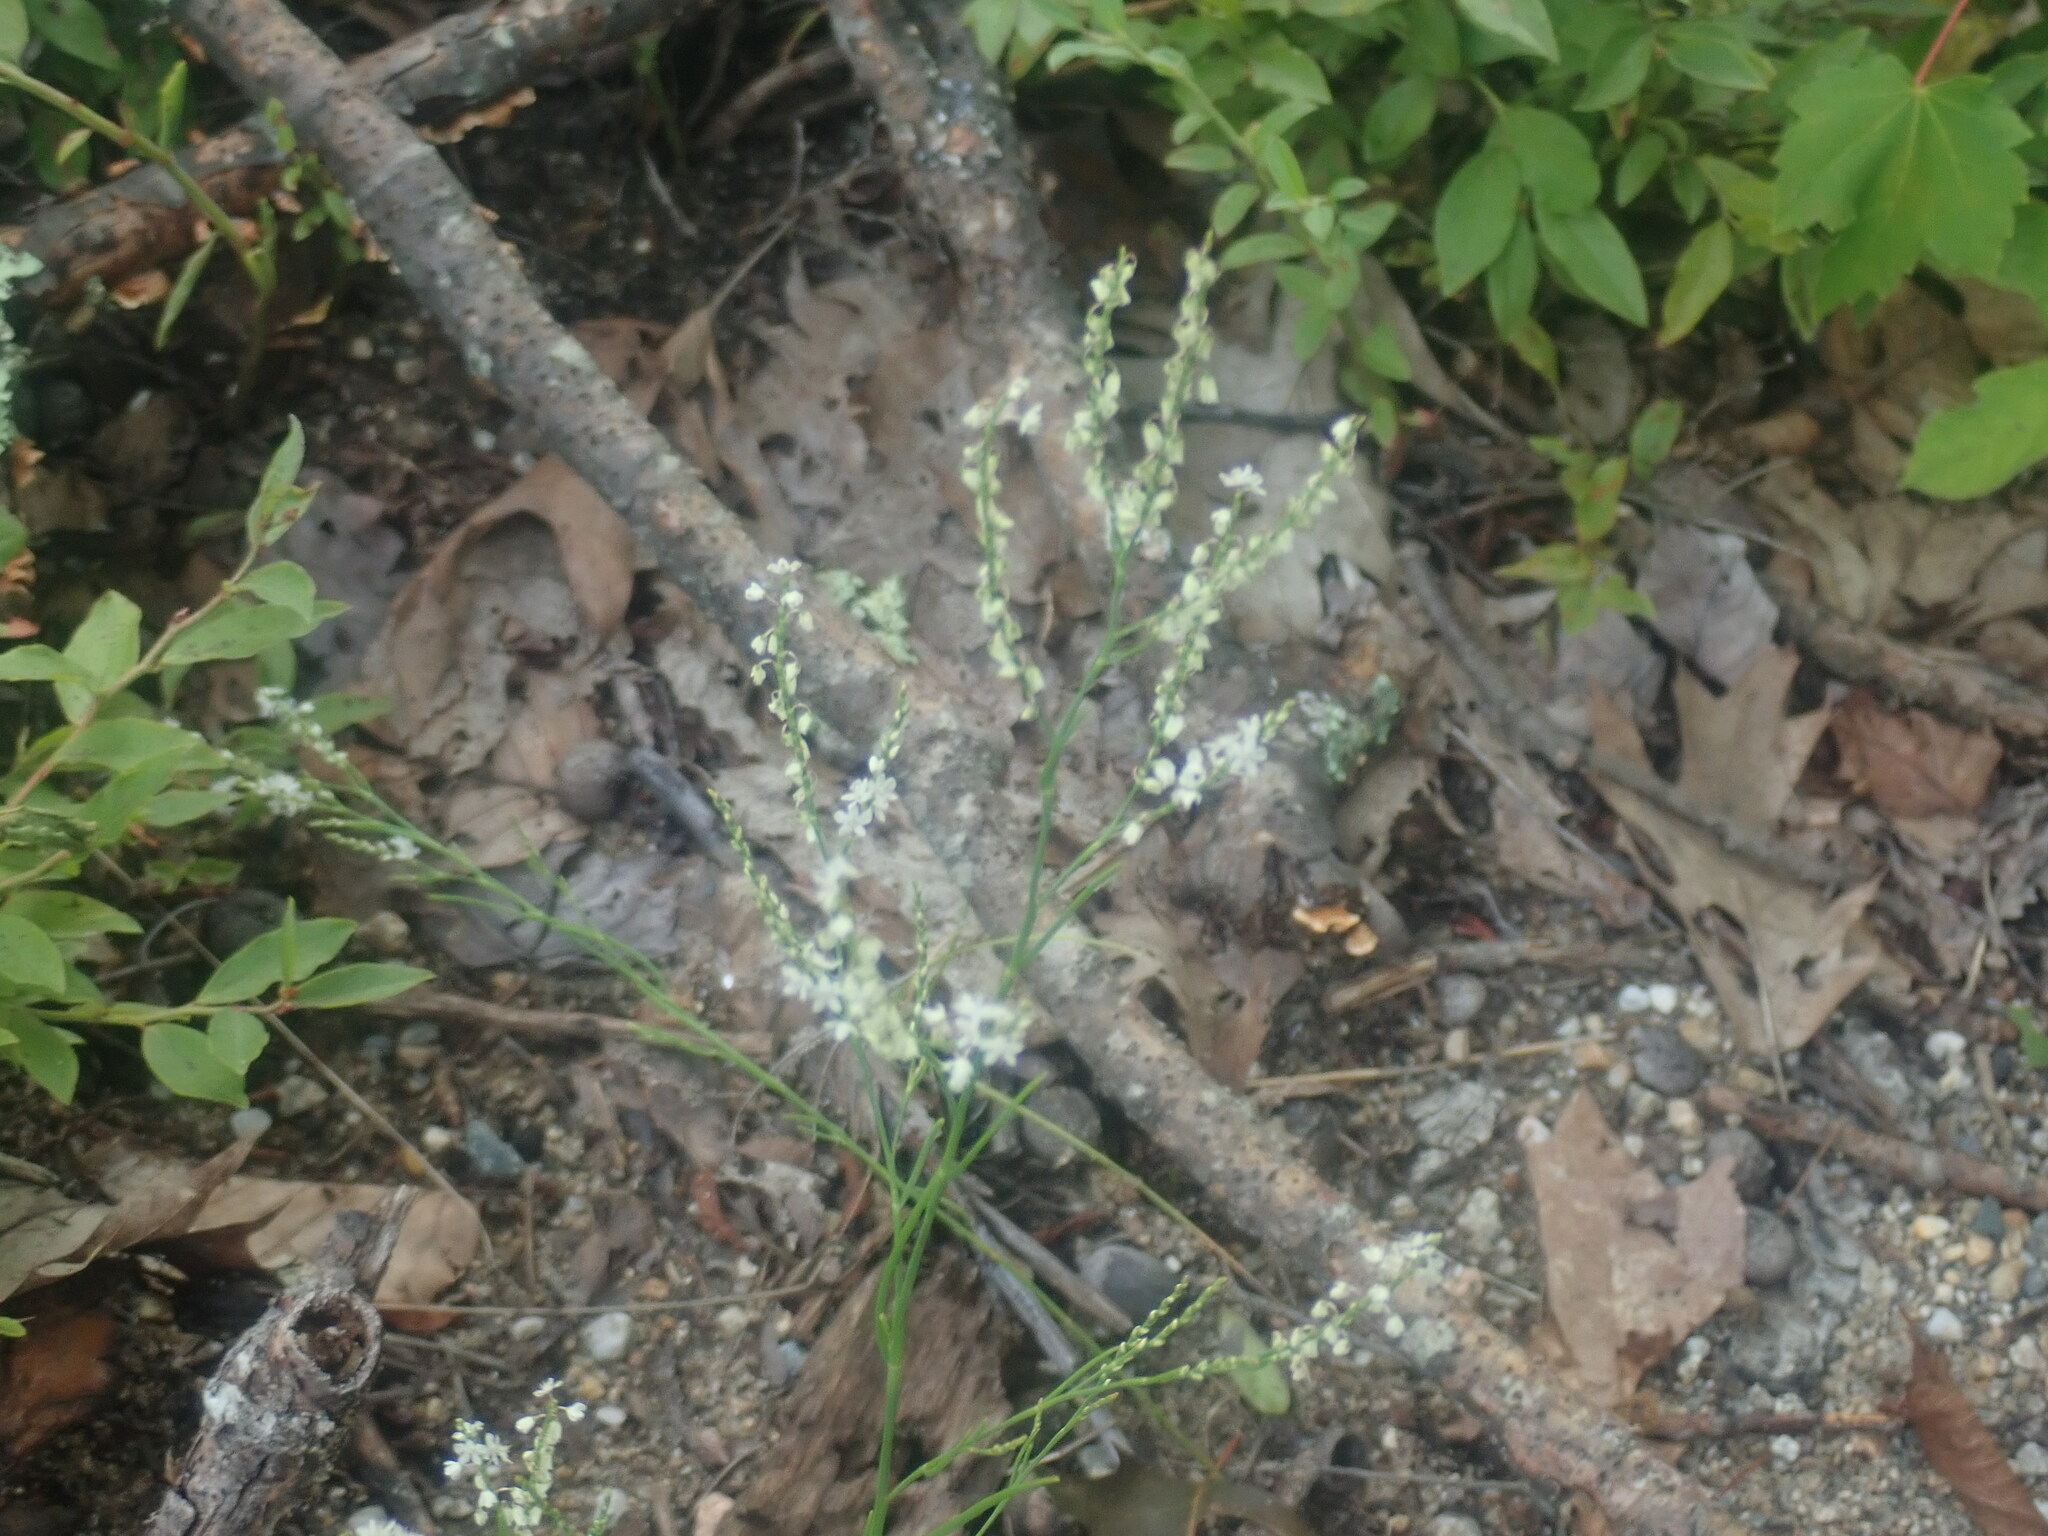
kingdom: Plantae
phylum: Tracheophyta
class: Magnoliopsida
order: Caryophyllales
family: Polygonaceae
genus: Polygonella
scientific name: Polygonella articulata
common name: Coastal jointweed
